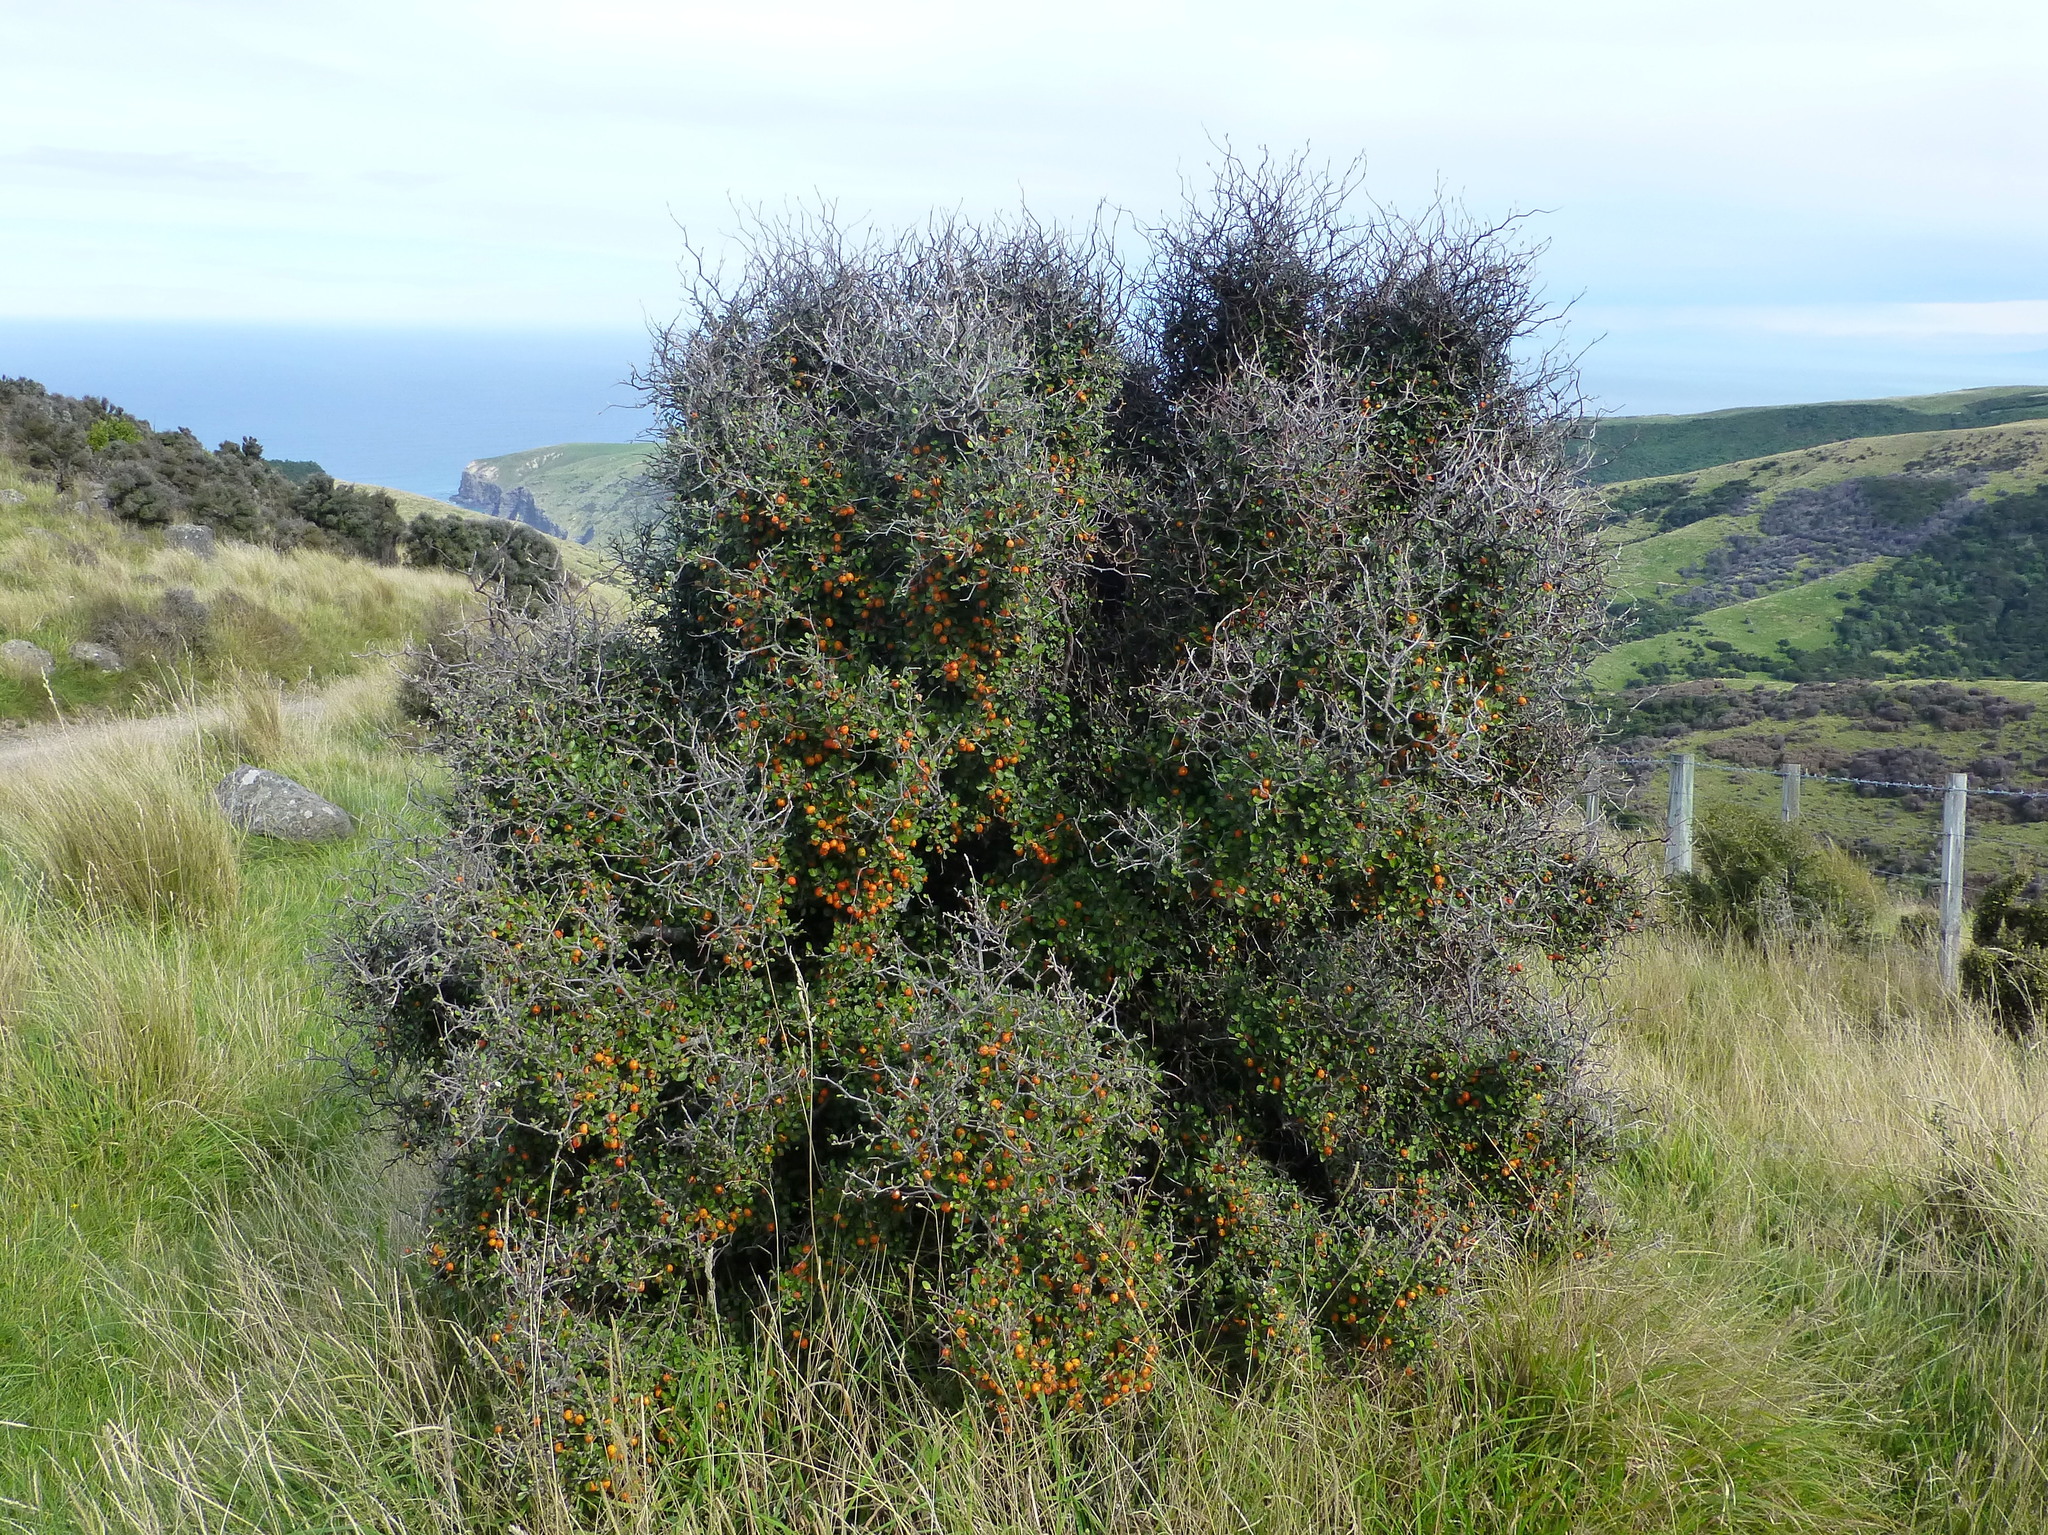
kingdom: Plantae
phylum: Tracheophyta
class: Magnoliopsida
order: Asterales
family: Argophyllaceae
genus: Corokia
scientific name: Corokia cotoneaster
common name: Wire nettingbush
